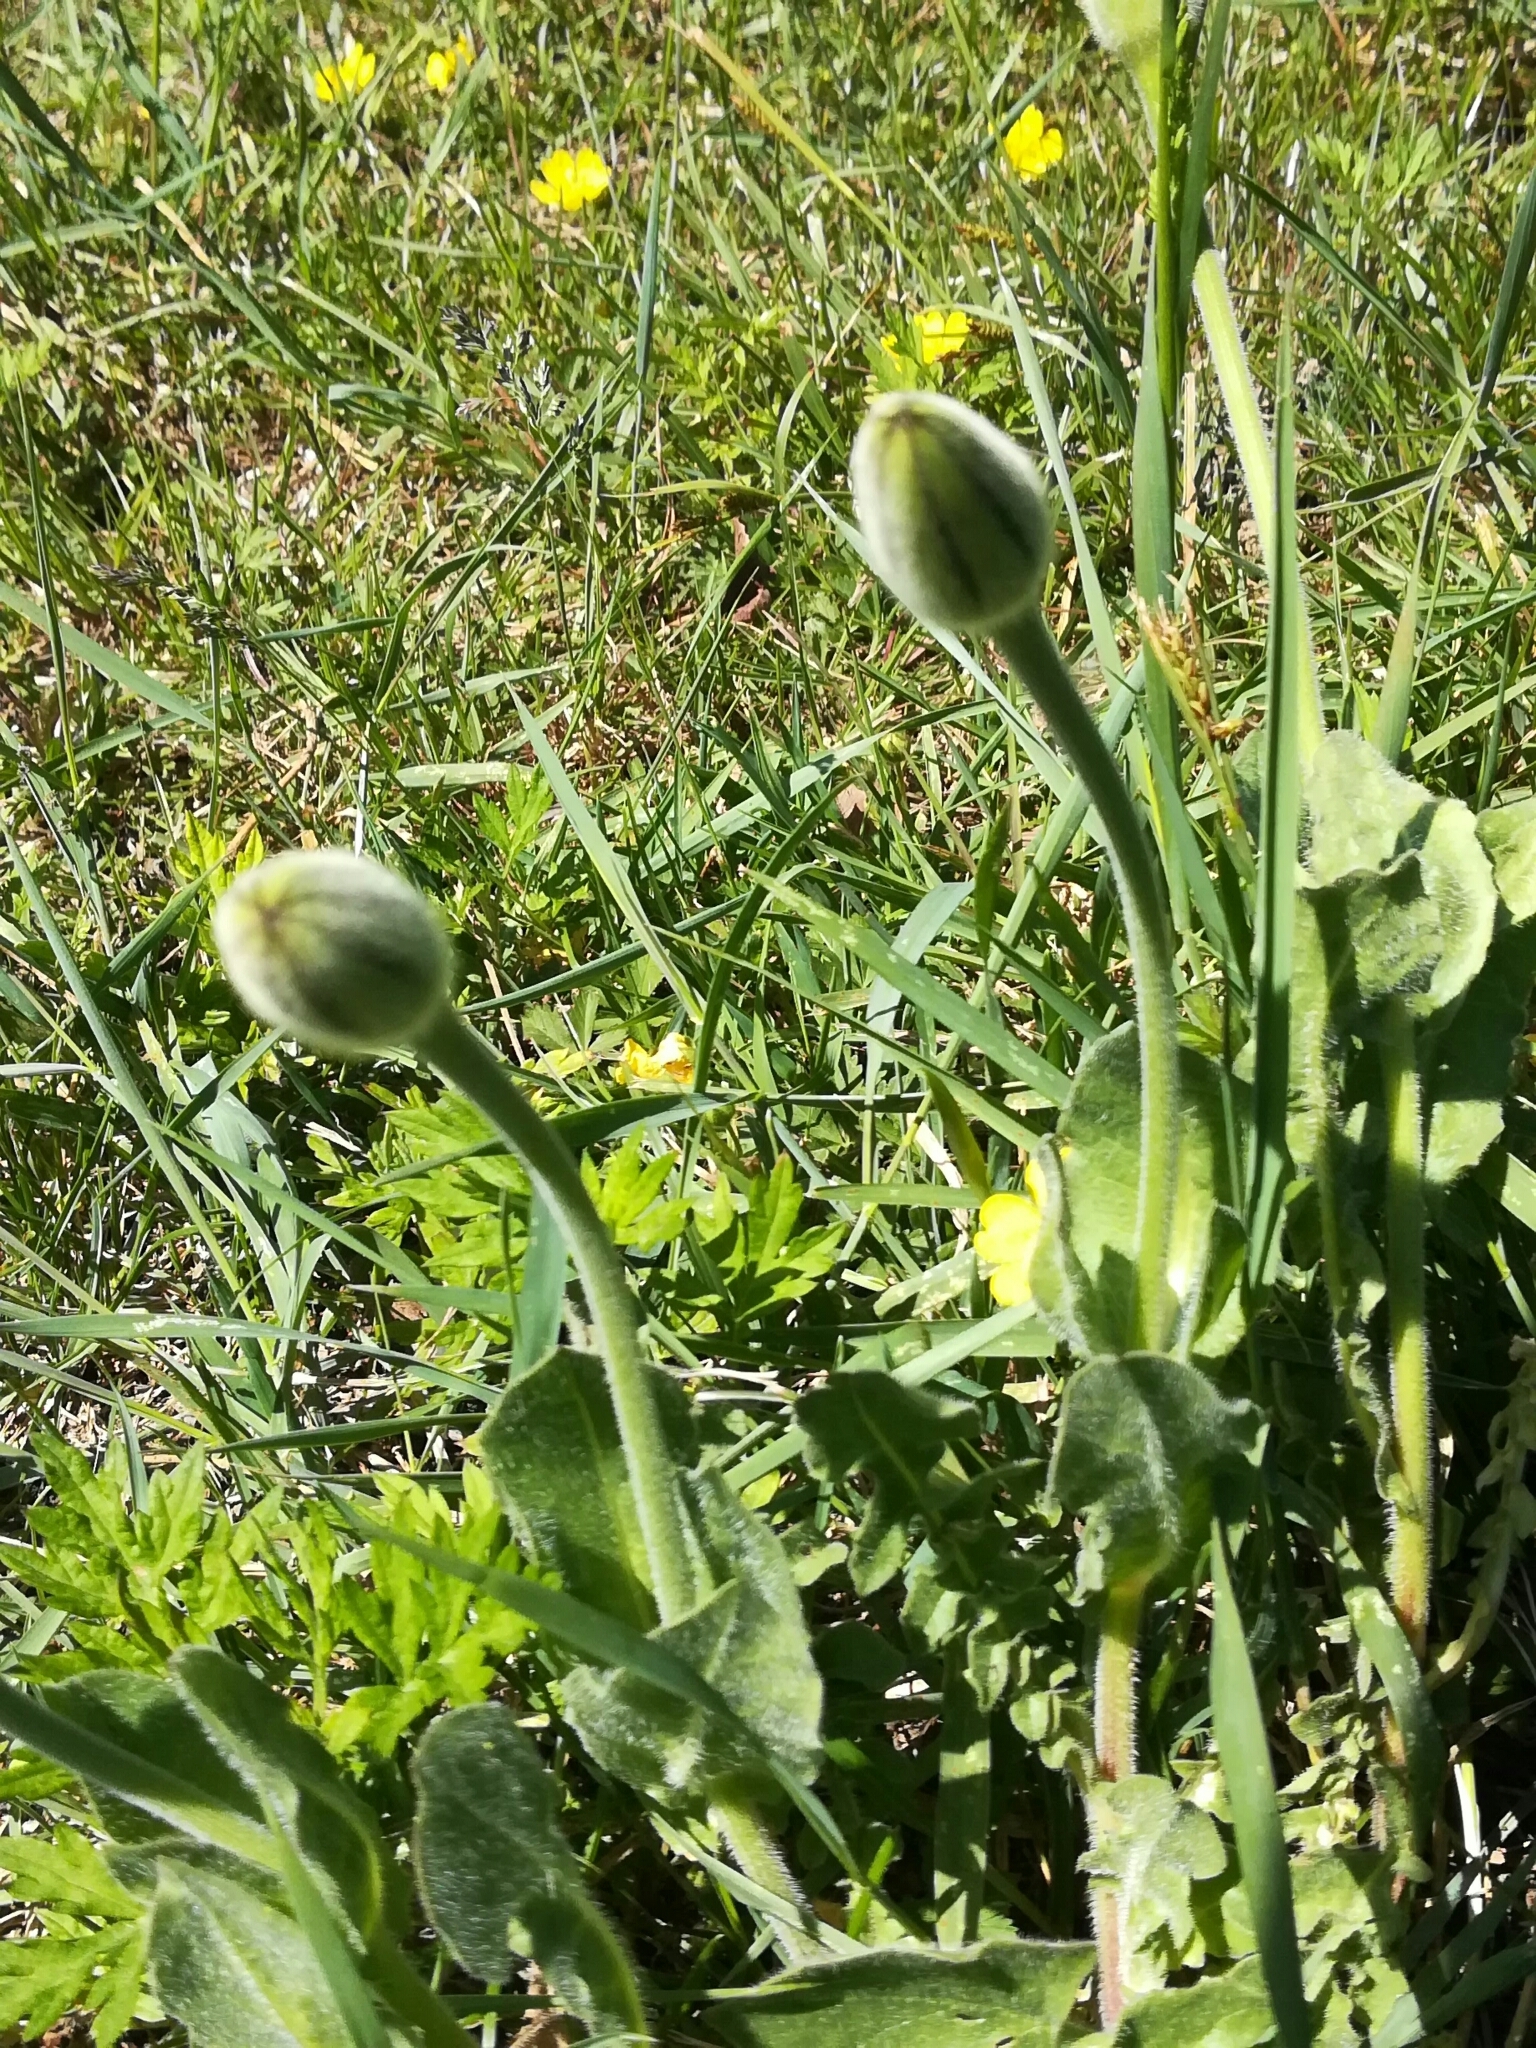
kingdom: Plantae
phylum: Tracheophyta
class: Magnoliopsida
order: Asterales
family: Asteraceae
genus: Urospermum
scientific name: Urospermum dalechampii
